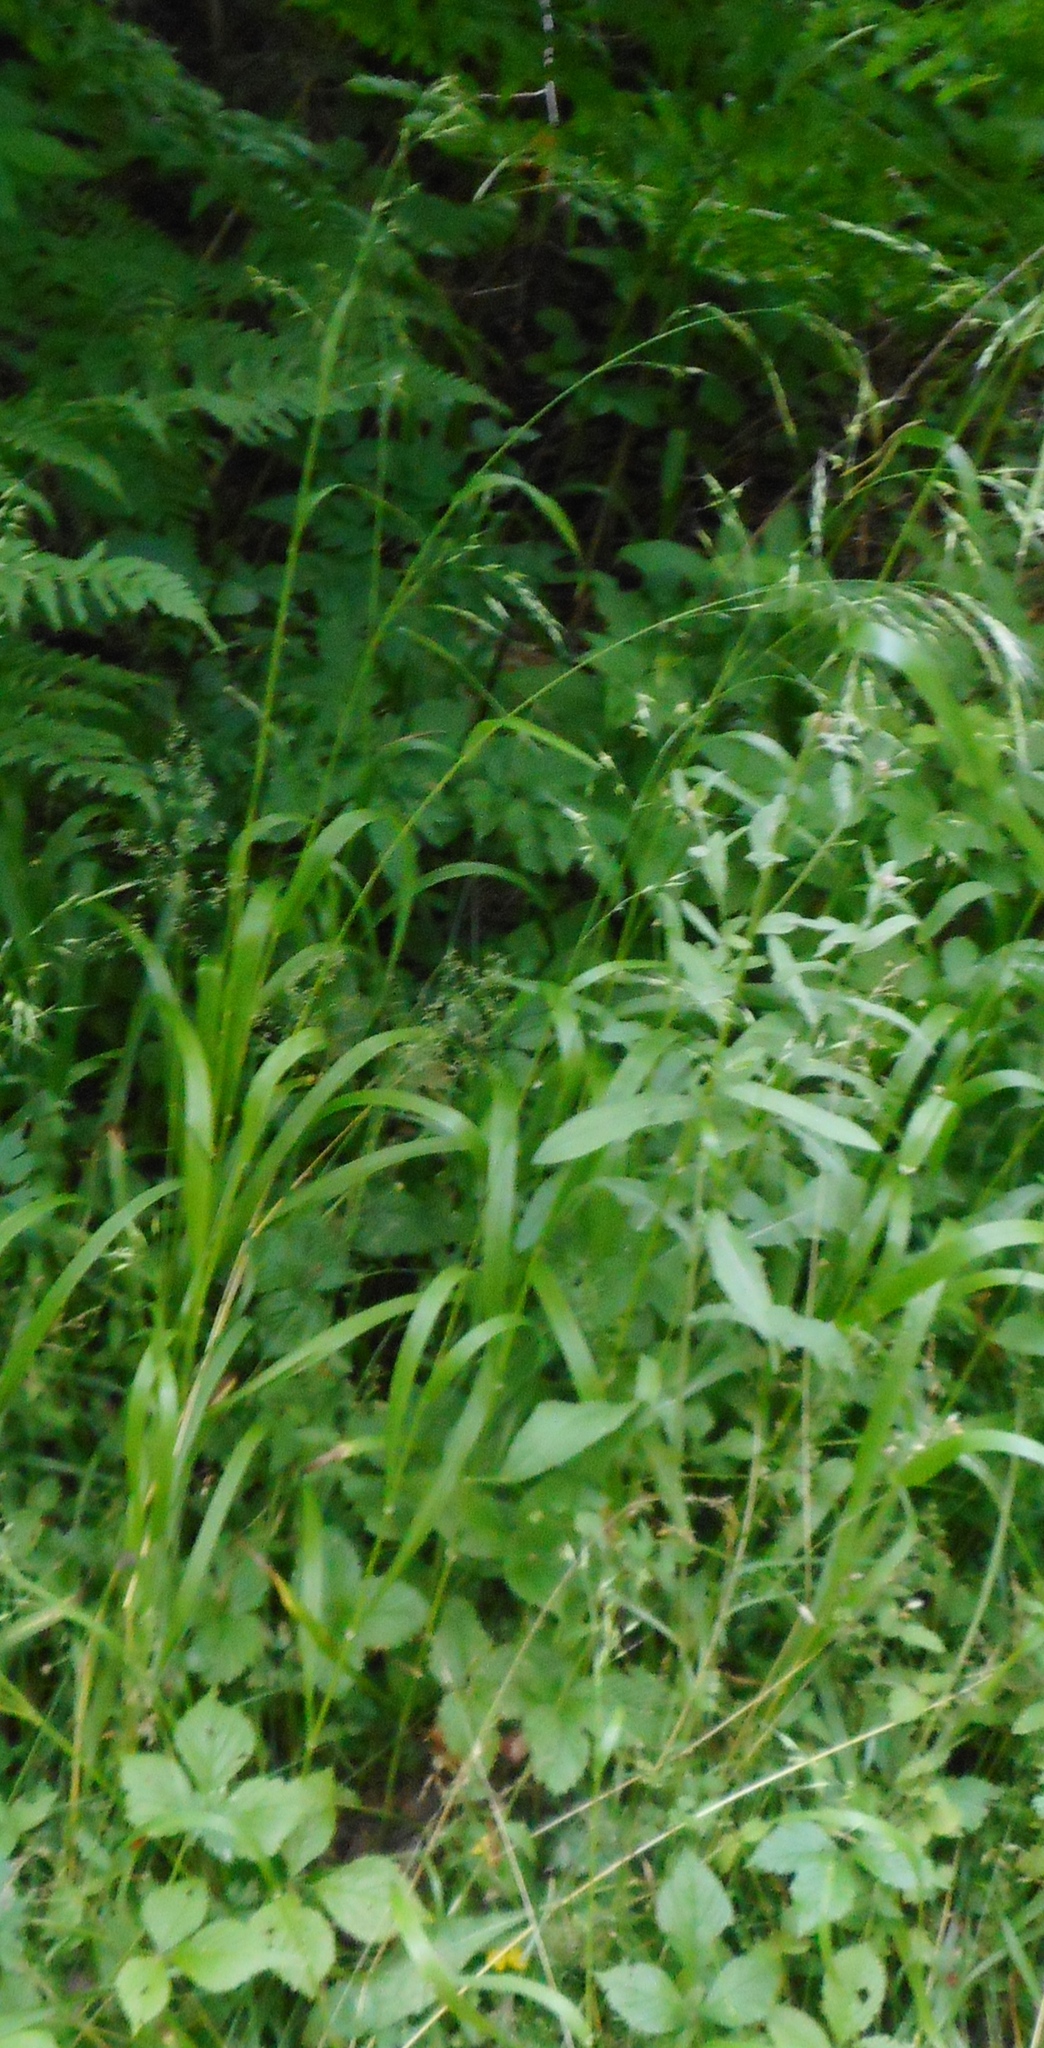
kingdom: Plantae
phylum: Tracheophyta
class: Liliopsida
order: Poales
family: Poaceae
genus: Lolium
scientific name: Lolium giganteum
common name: Giant fescue
